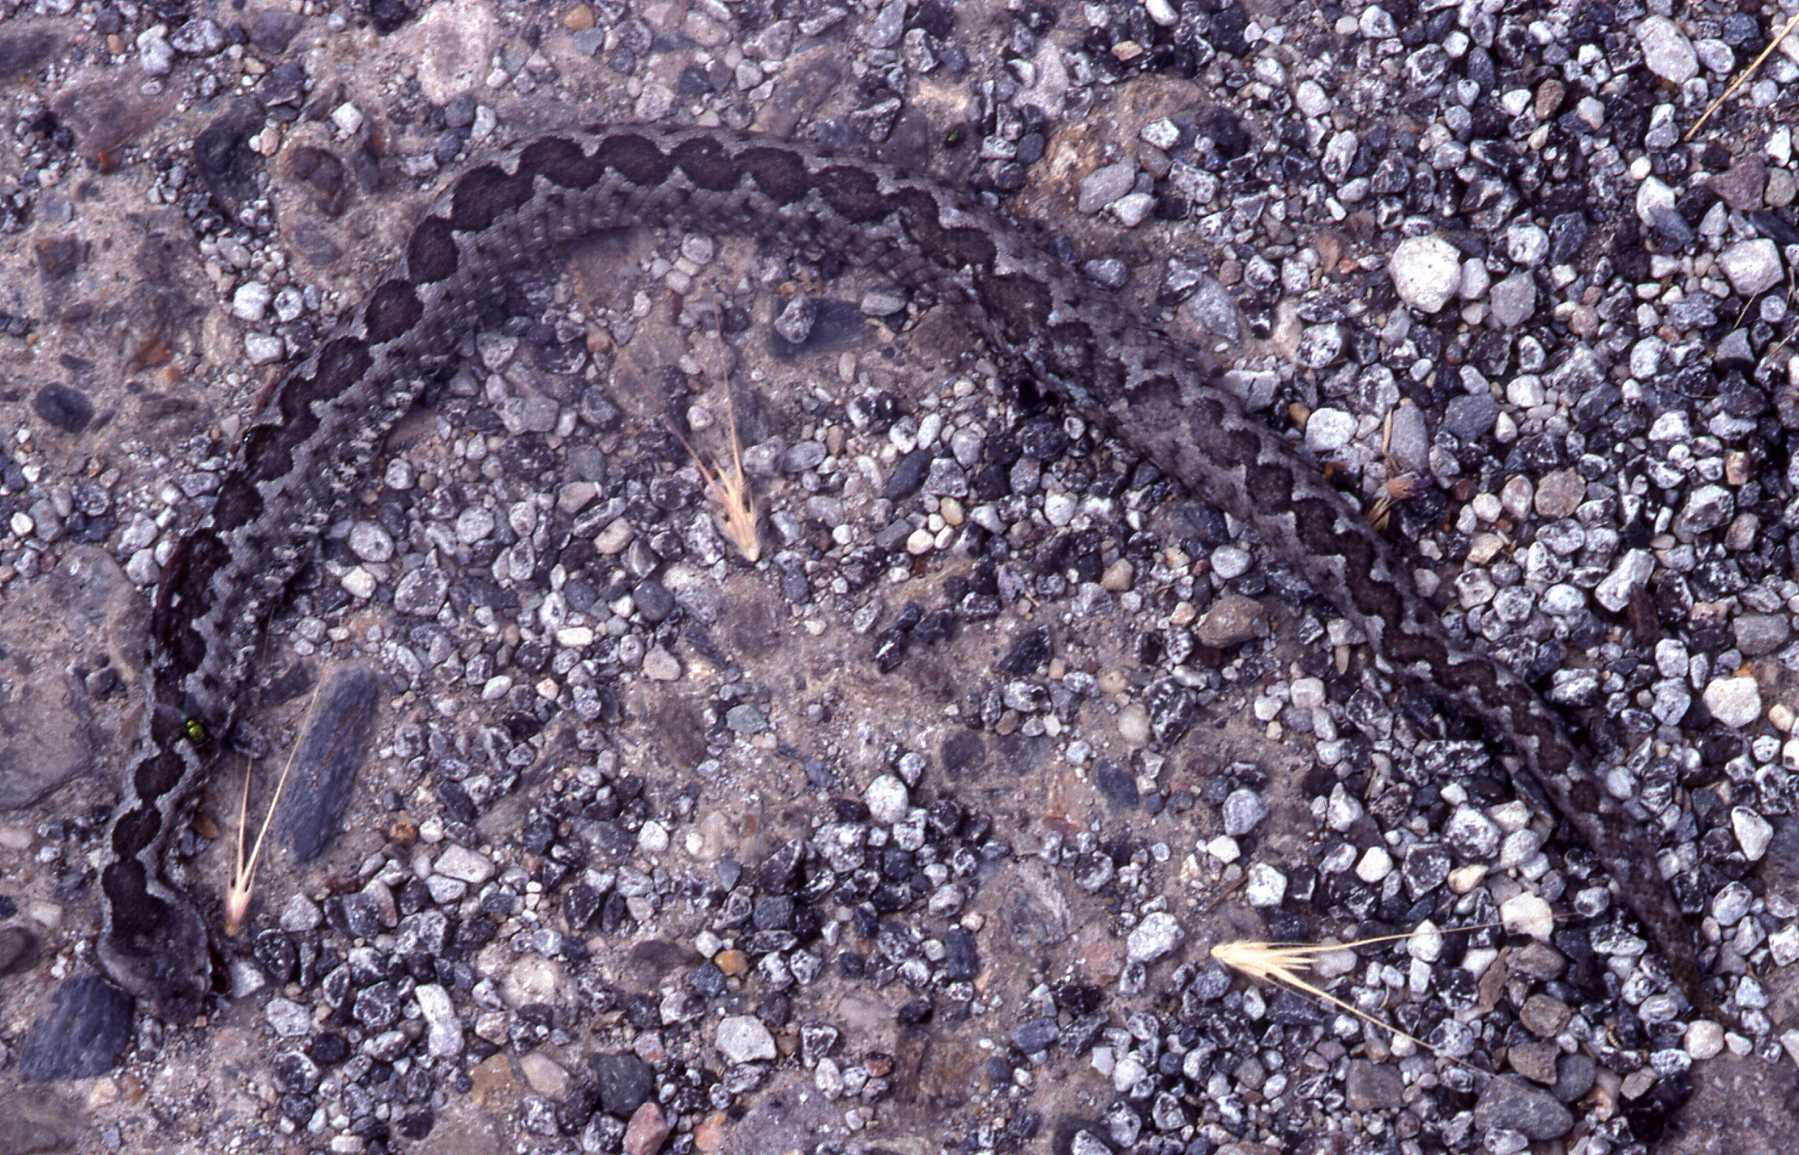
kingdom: Animalia
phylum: Chordata
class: Squamata
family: Viperidae
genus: Vipera
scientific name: Vipera ammodytes
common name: Sand viper
